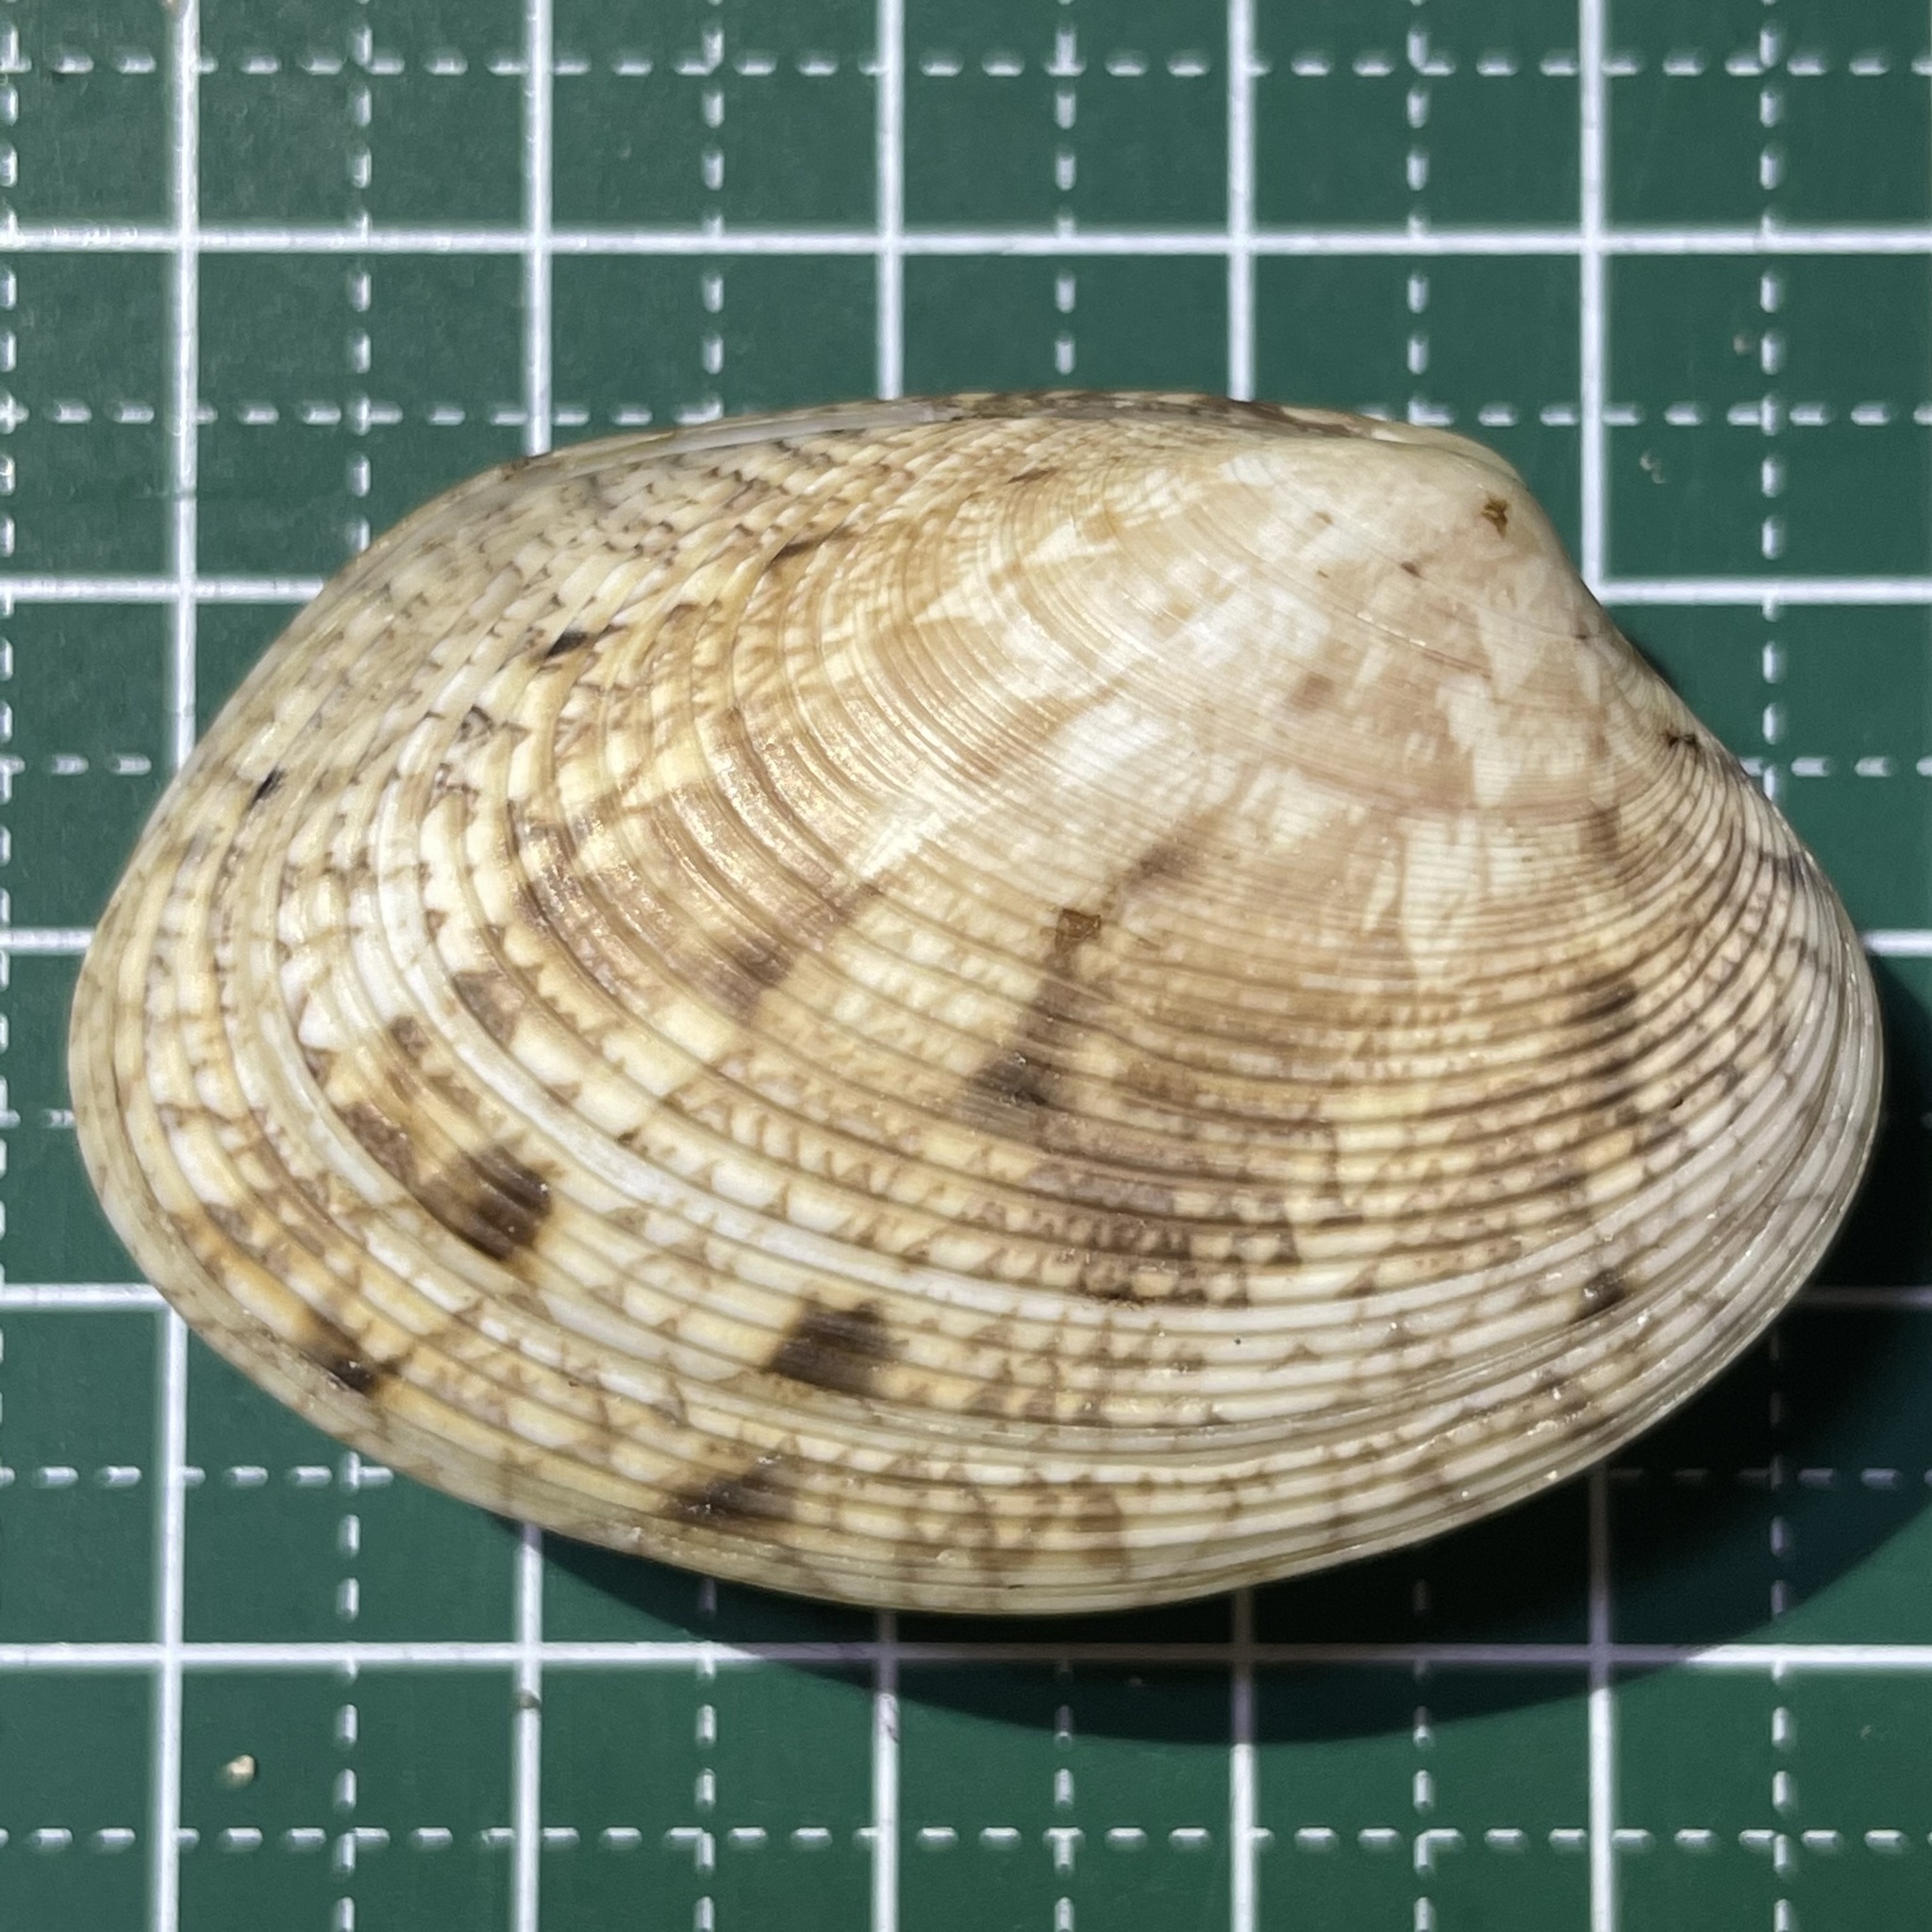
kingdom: Animalia
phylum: Mollusca
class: Bivalvia
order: Venerida
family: Veneridae
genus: Tapes
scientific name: Tapes platyptycha
